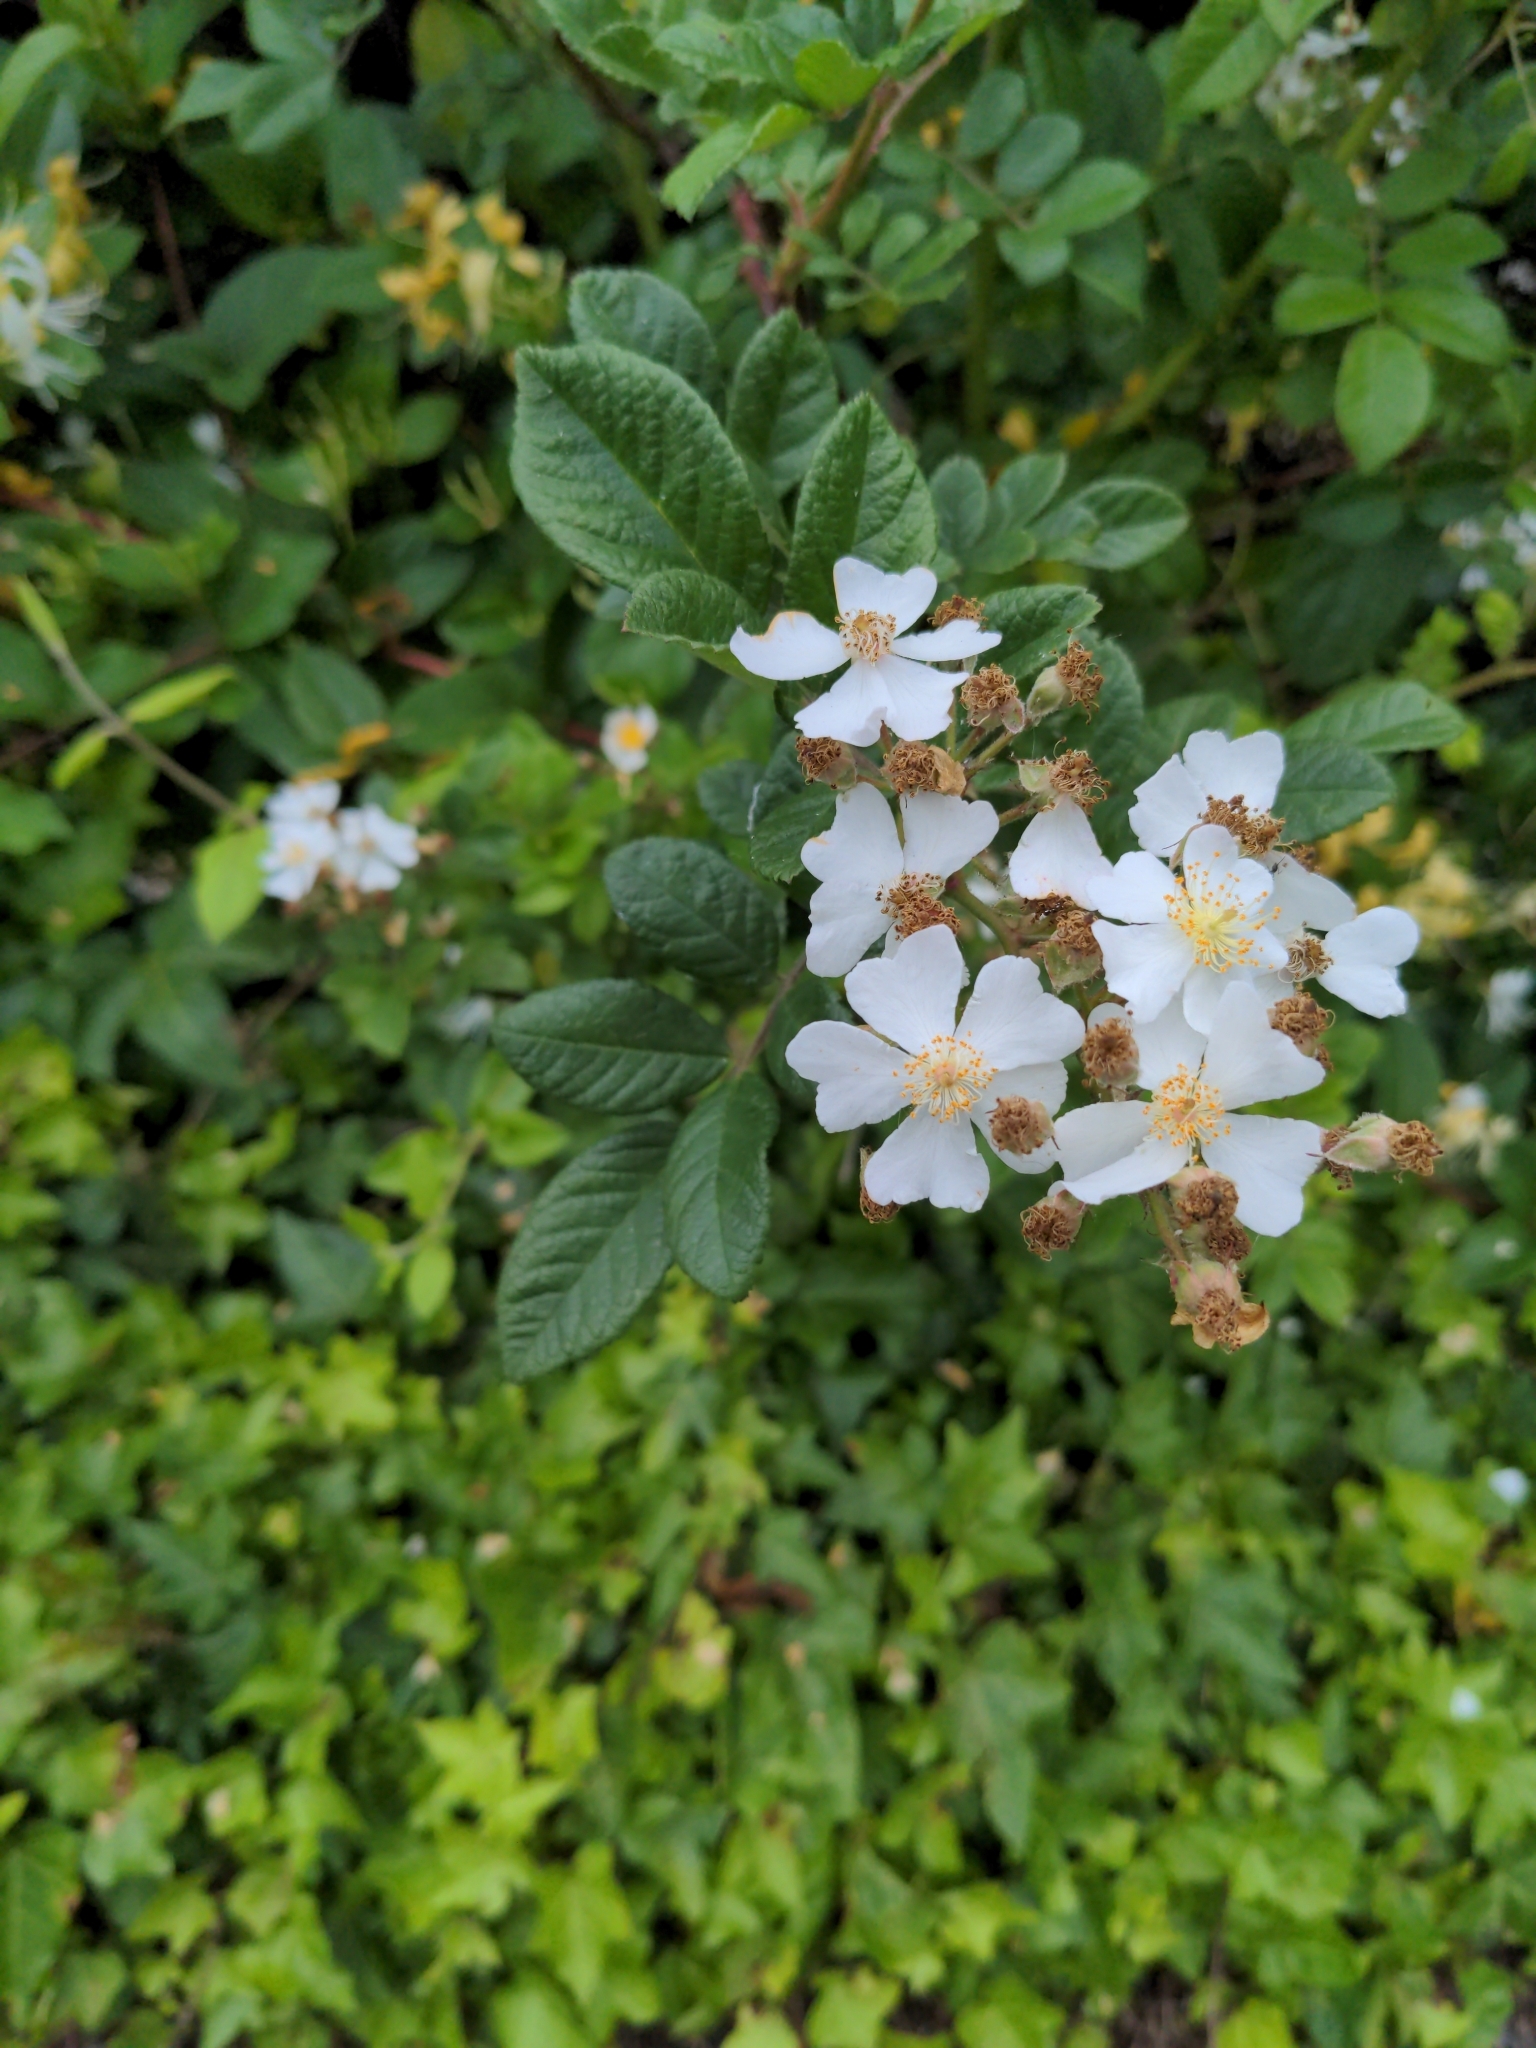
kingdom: Plantae
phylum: Tracheophyta
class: Magnoliopsida
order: Rosales
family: Rosaceae
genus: Rosa
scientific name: Rosa multiflora
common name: Multiflora rose
